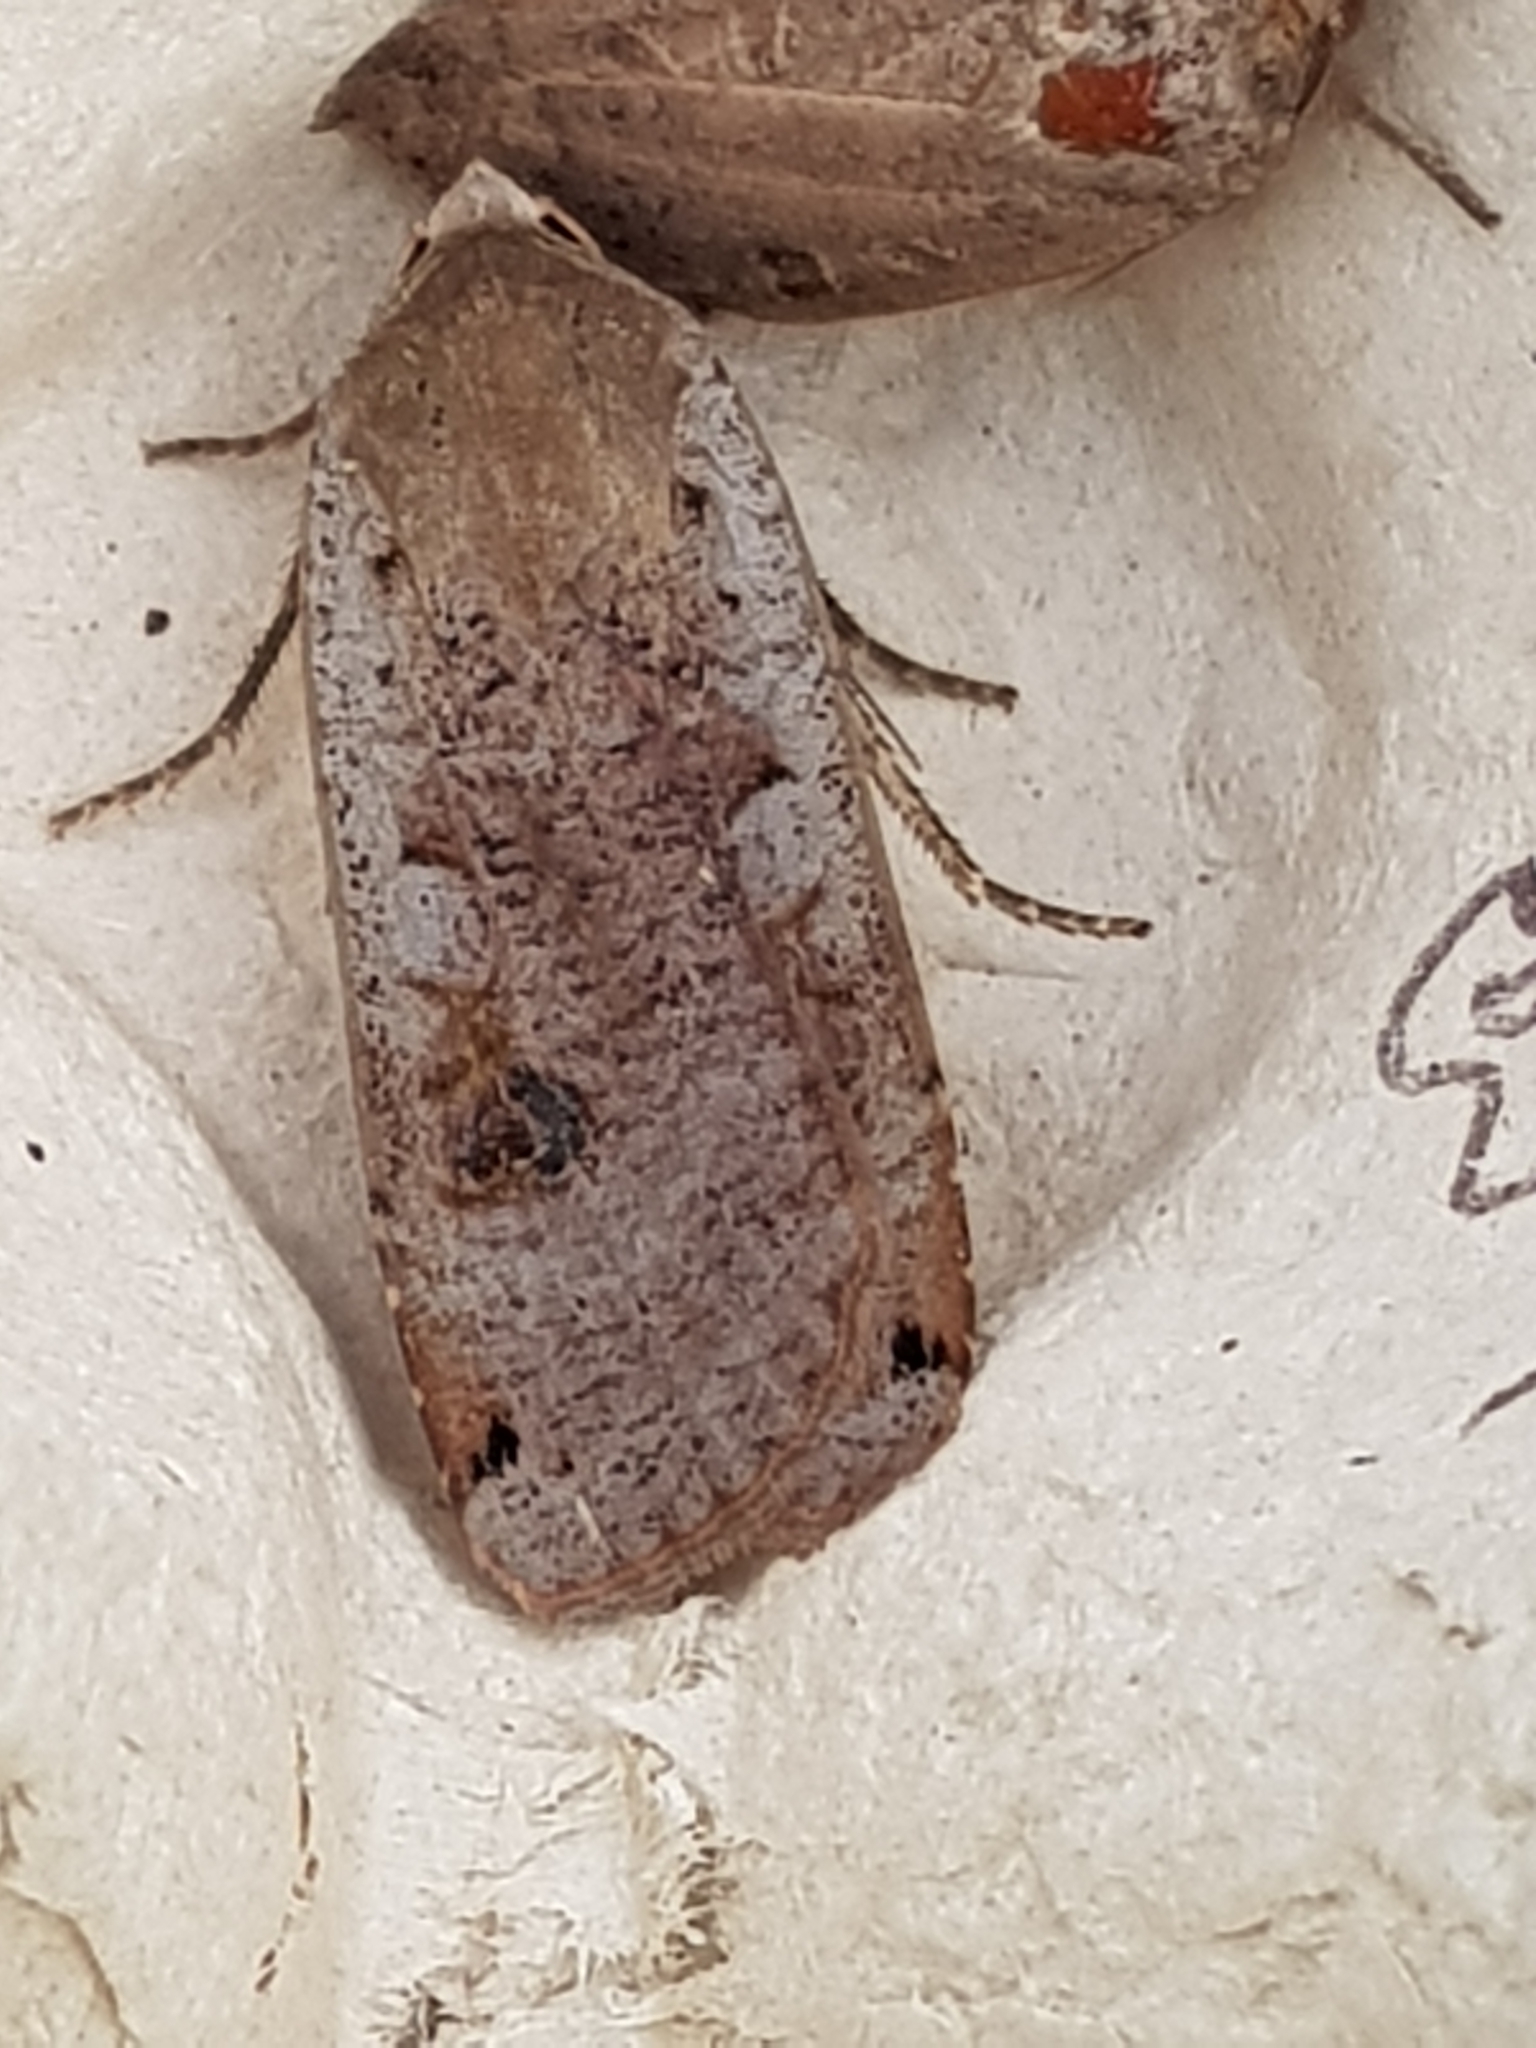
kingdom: Animalia
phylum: Arthropoda
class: Insecta
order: Lepidoptera
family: Noctuidae
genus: Noctua
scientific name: Noctua pronuba
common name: Large yellow underwing
